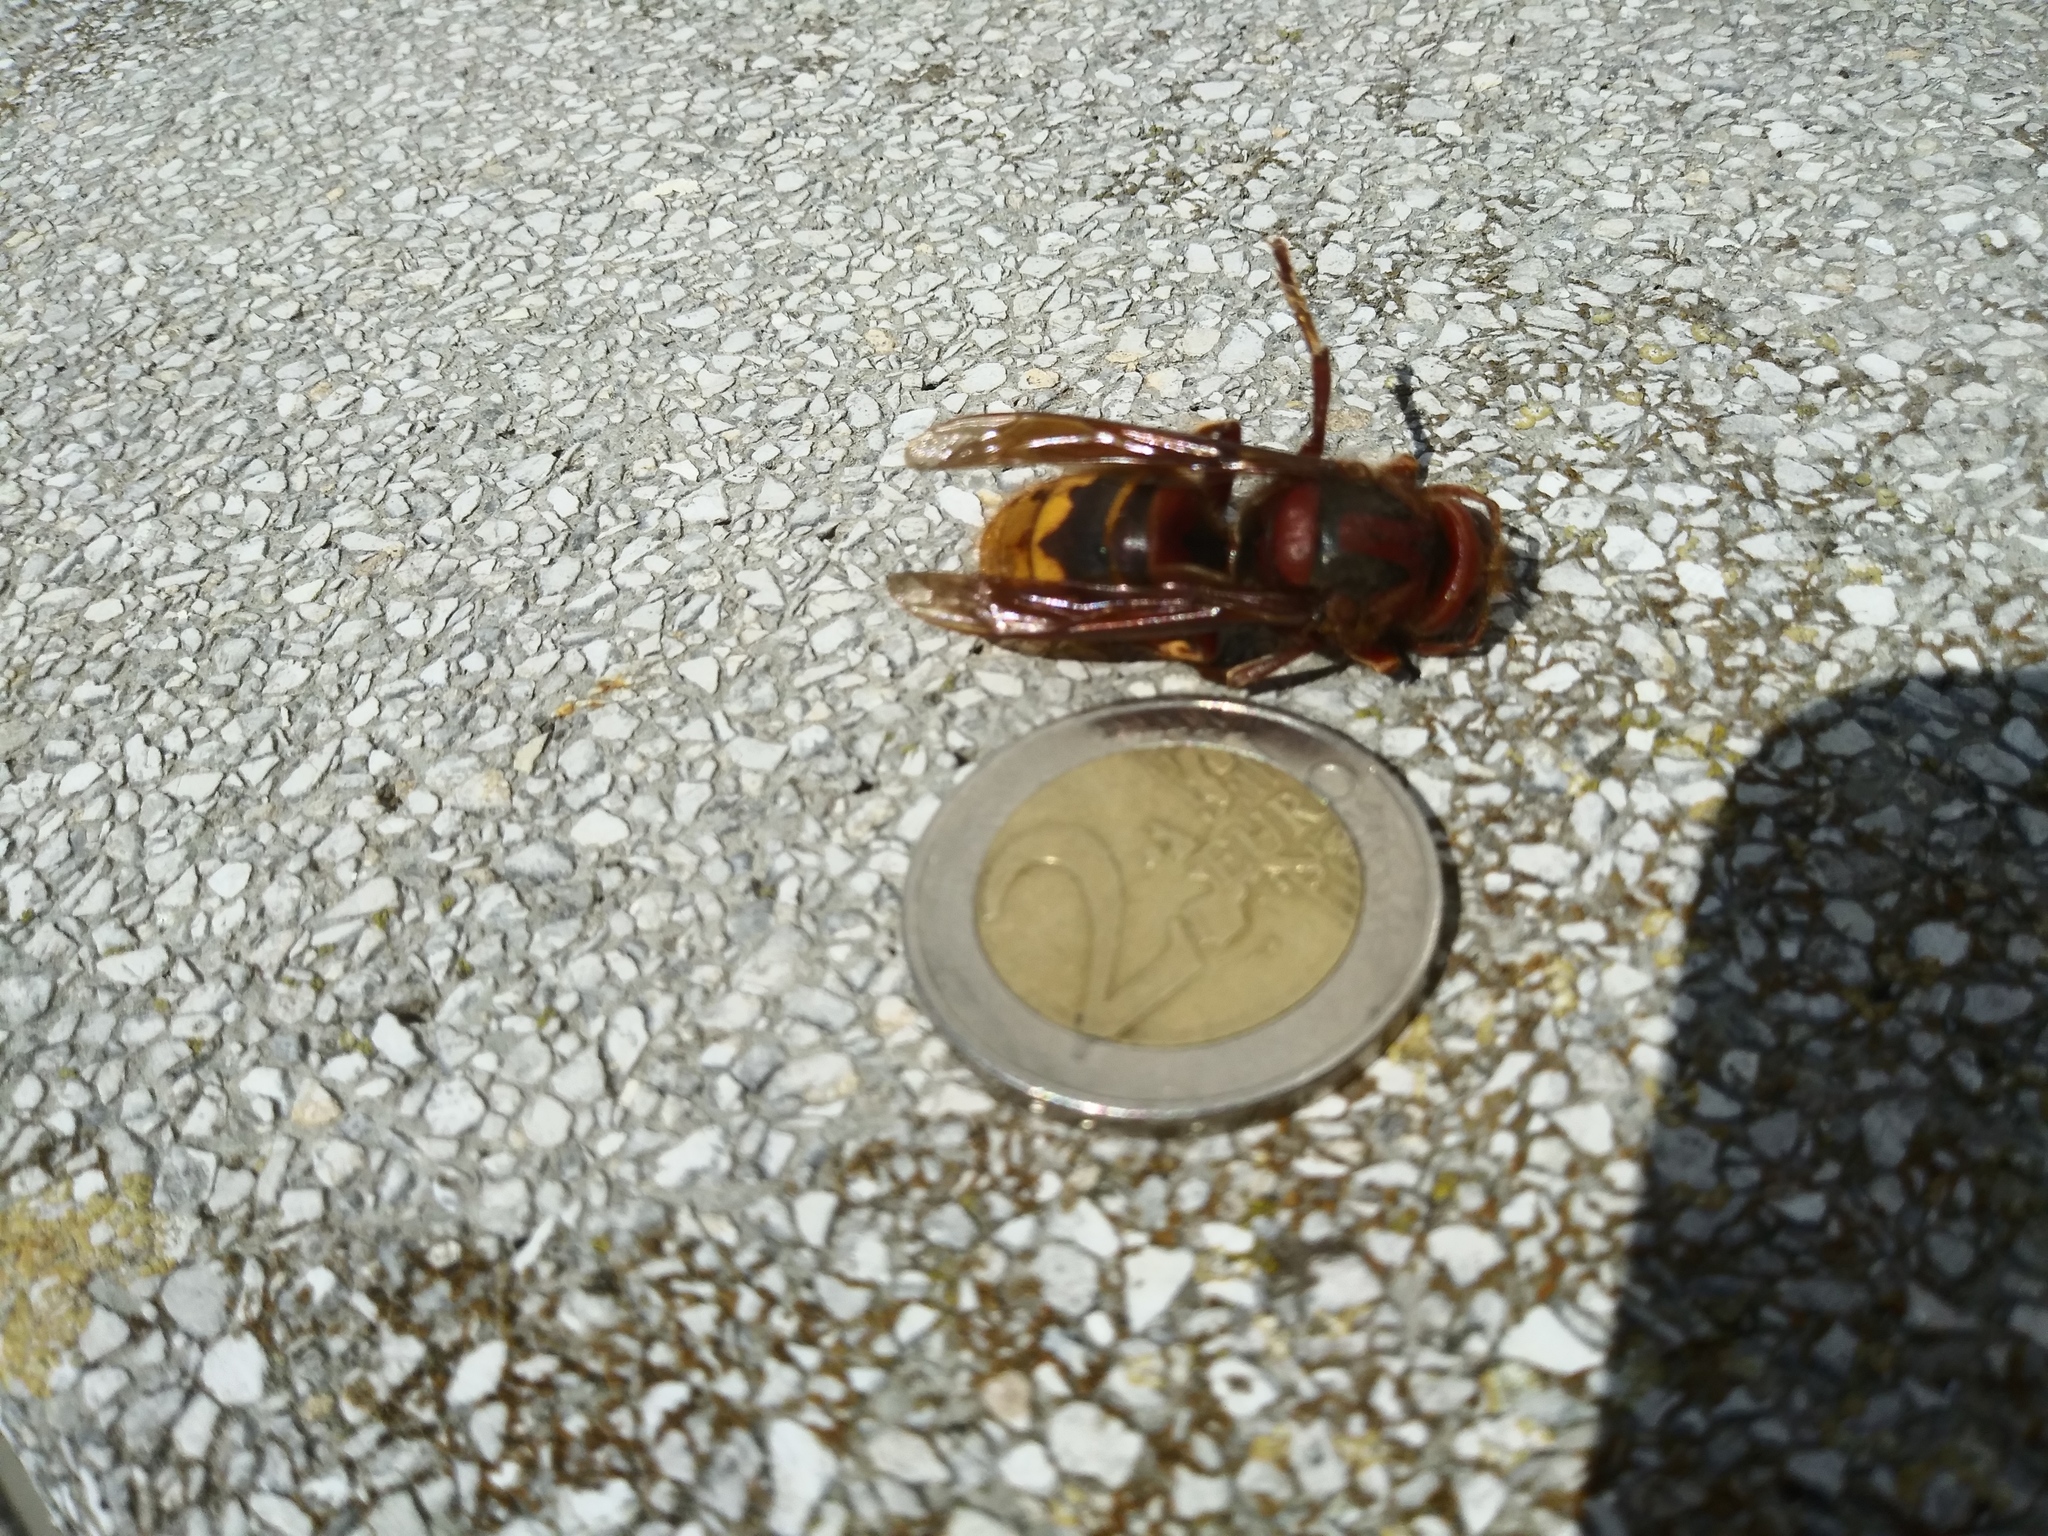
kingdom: Animalia
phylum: Arthropoda
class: Insecta
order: Hymenoptera
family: Vespidae
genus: Vespa
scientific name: Vespa crabro
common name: Hornet
